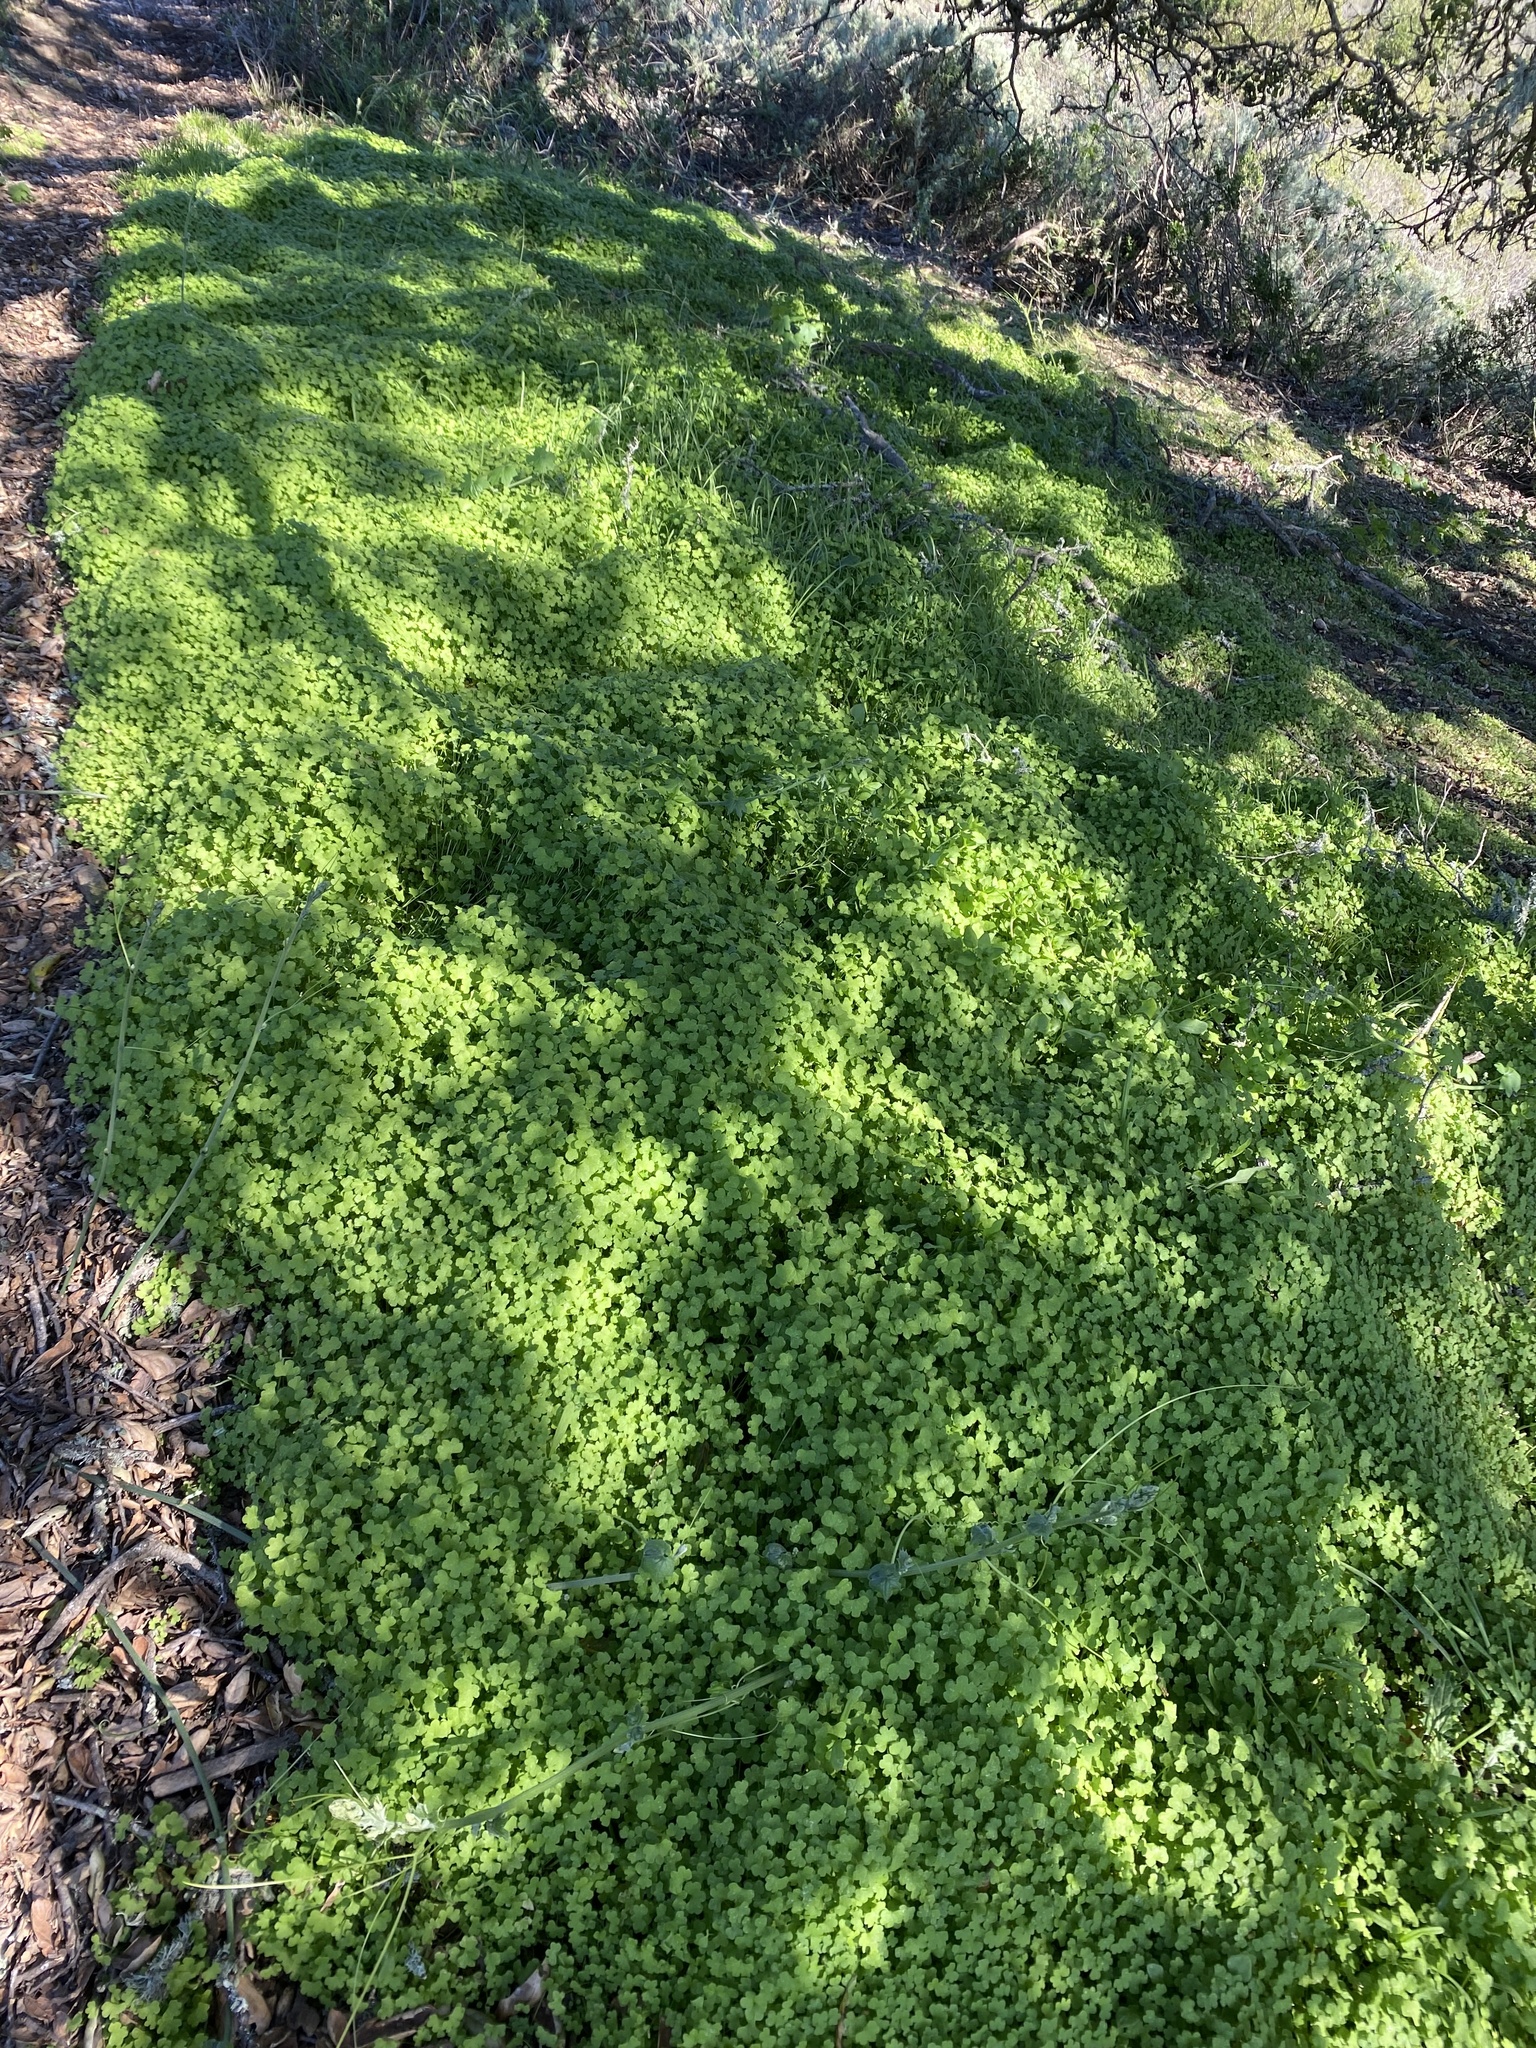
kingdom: Plantae
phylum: Tracheophyta
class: Magnoliopsida
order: Apiales
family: Apiaceae
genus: Bowlesia
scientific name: Bowlesia incana
